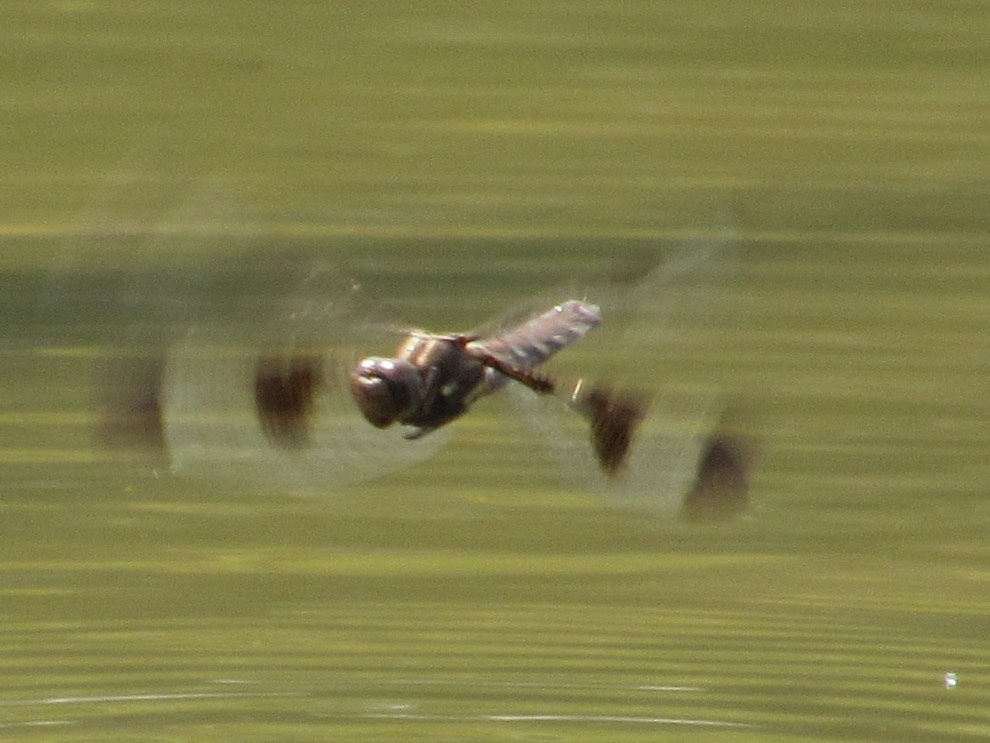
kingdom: Animalia
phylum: Arthropoda
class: Insecta
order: Odonata
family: Libellulidae
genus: Plathemis
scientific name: Plathemis lydia
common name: Common whitetail
